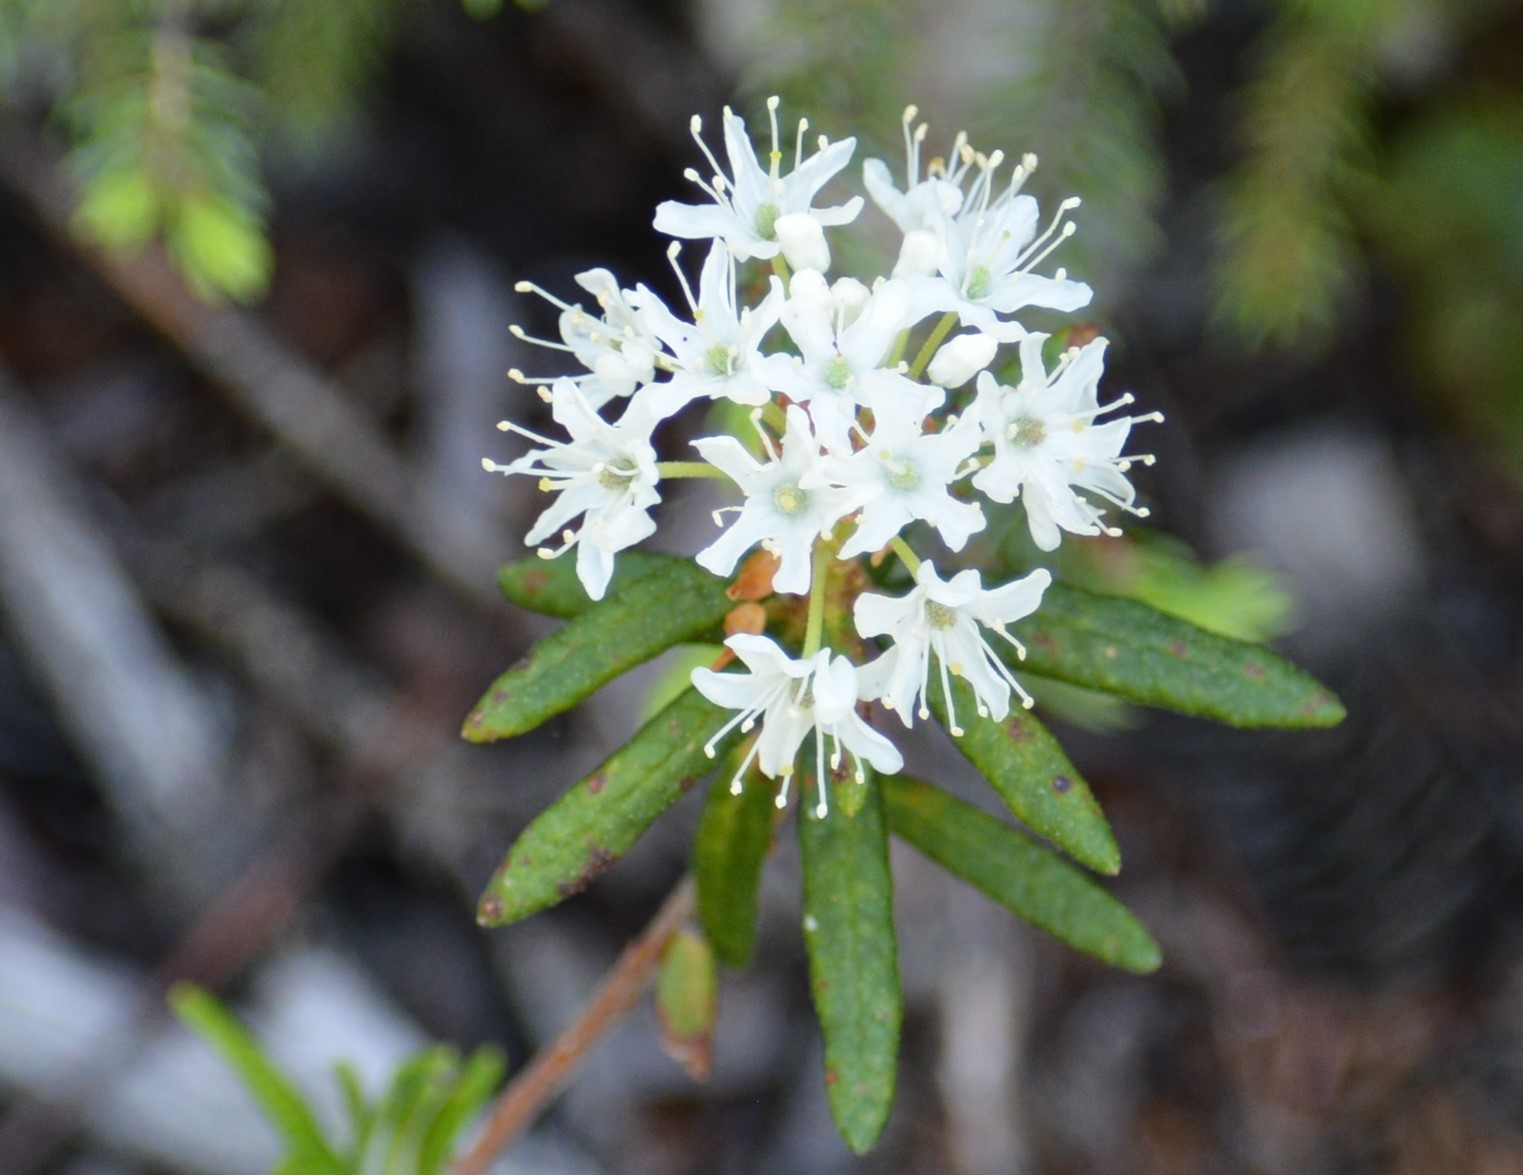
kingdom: Plantae
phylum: Tracheophyta
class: Magnoliopsida
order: Ericales
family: Ericaceae
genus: Rhododendron
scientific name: Rhododendron groenlandicum
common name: Bog labrador tea
